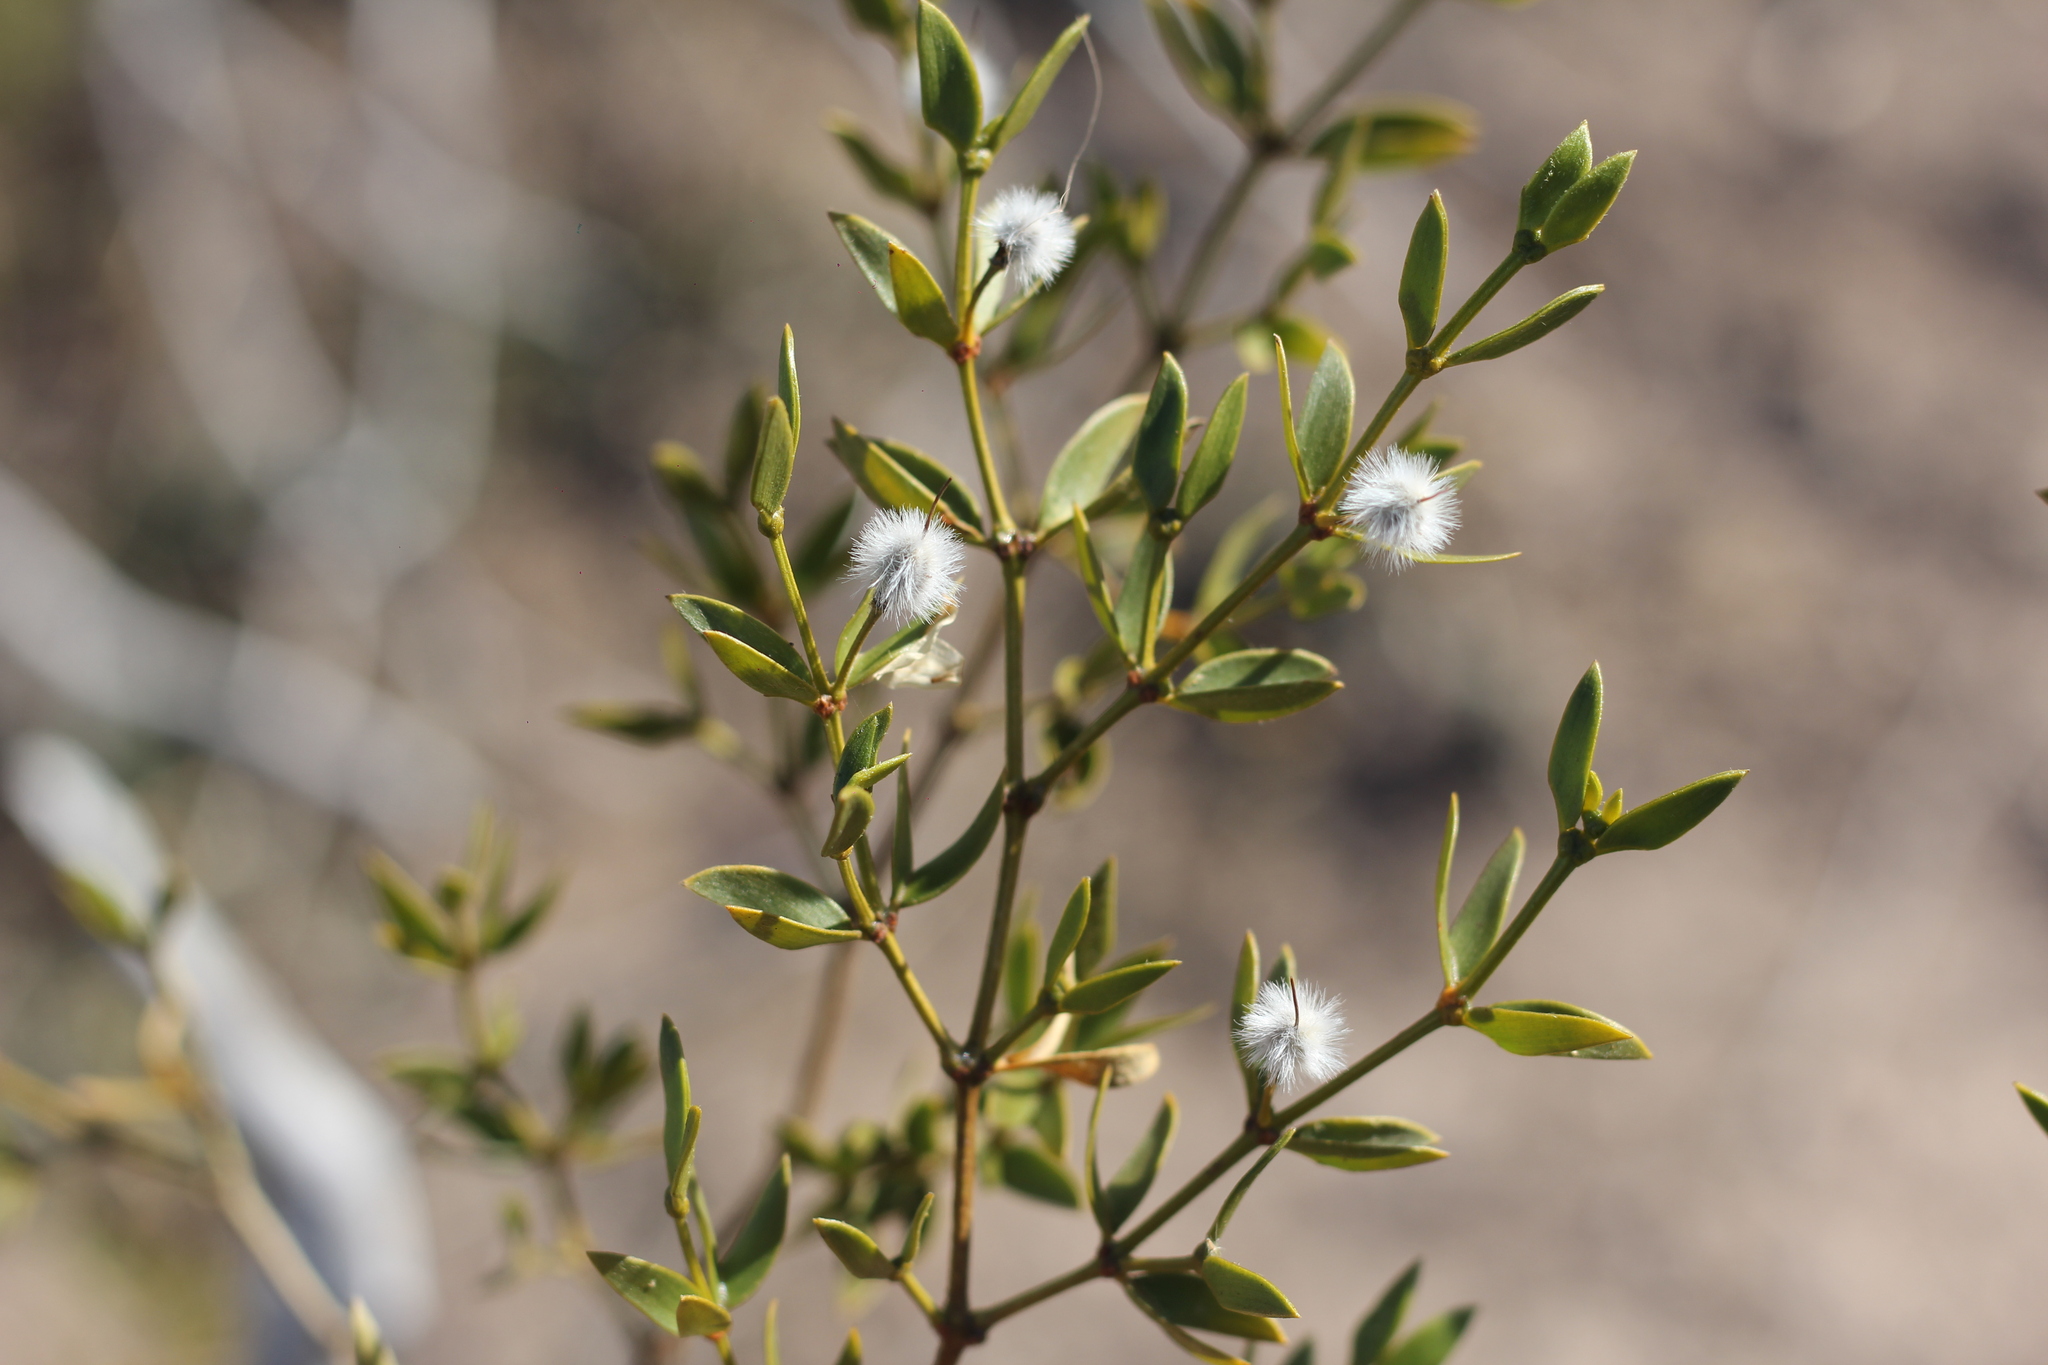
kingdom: Plantae
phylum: Tracheophyta
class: Magnoliopsida
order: Zygophyllales
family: Zygophyllaceae
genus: Larrea
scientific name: Larrea divaricata
